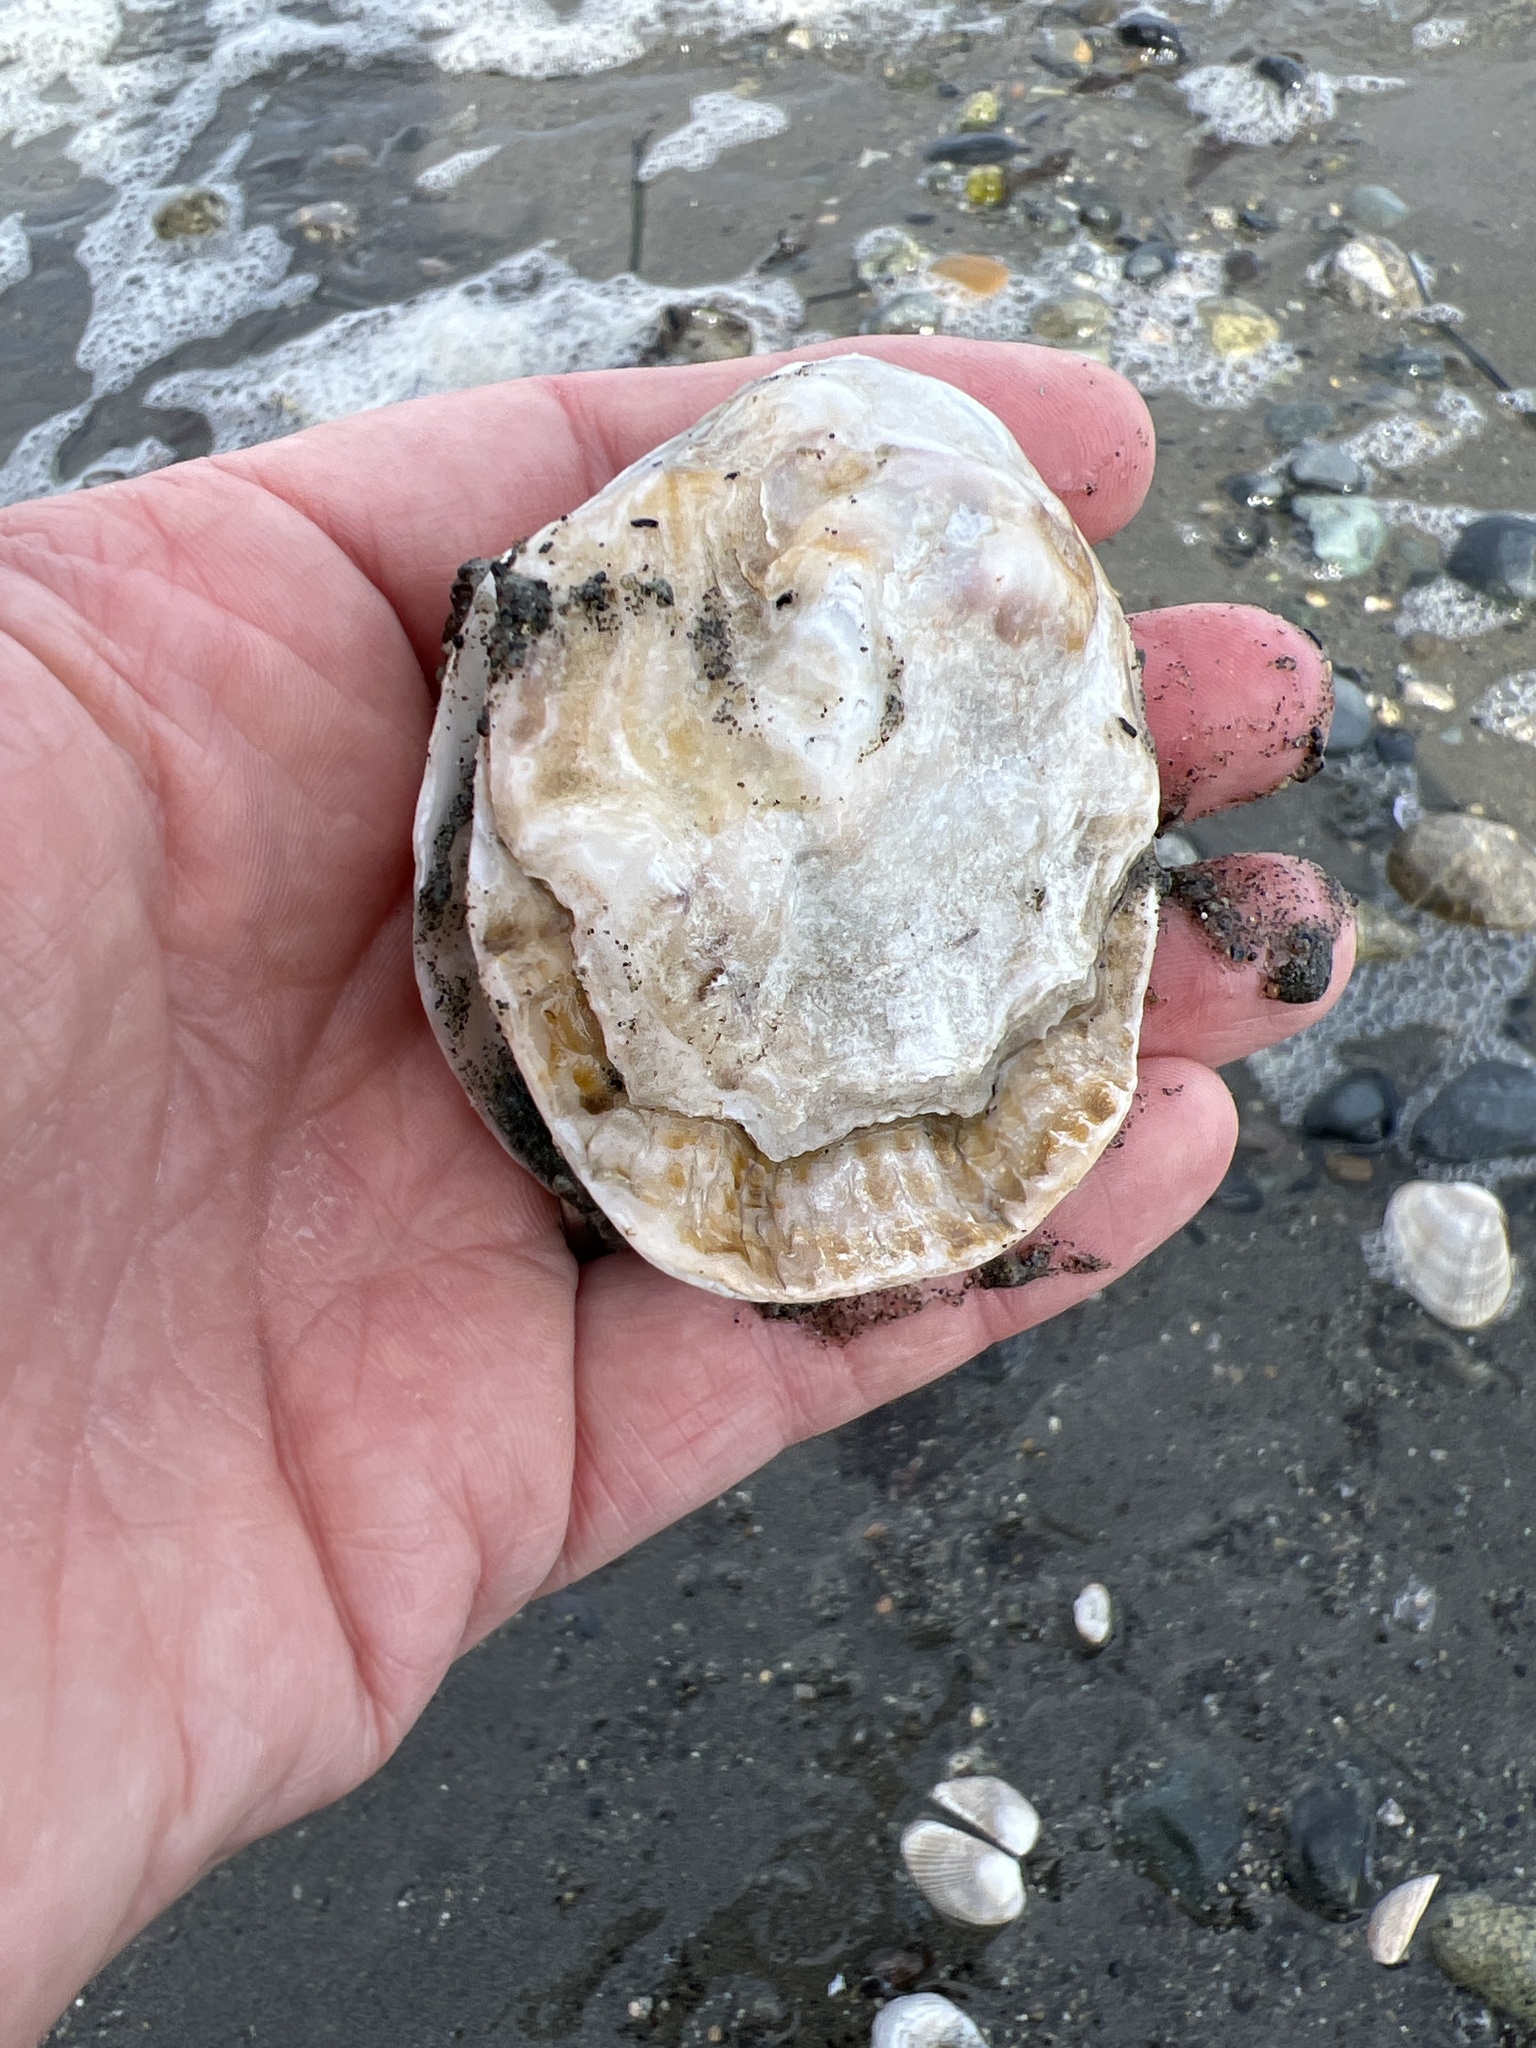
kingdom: Animalia
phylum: Mollusca
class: Bivalvia
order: Ostreida
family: Ostreidae
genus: Ostrea
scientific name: Ostrea lurida
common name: Olympia flat oyster
